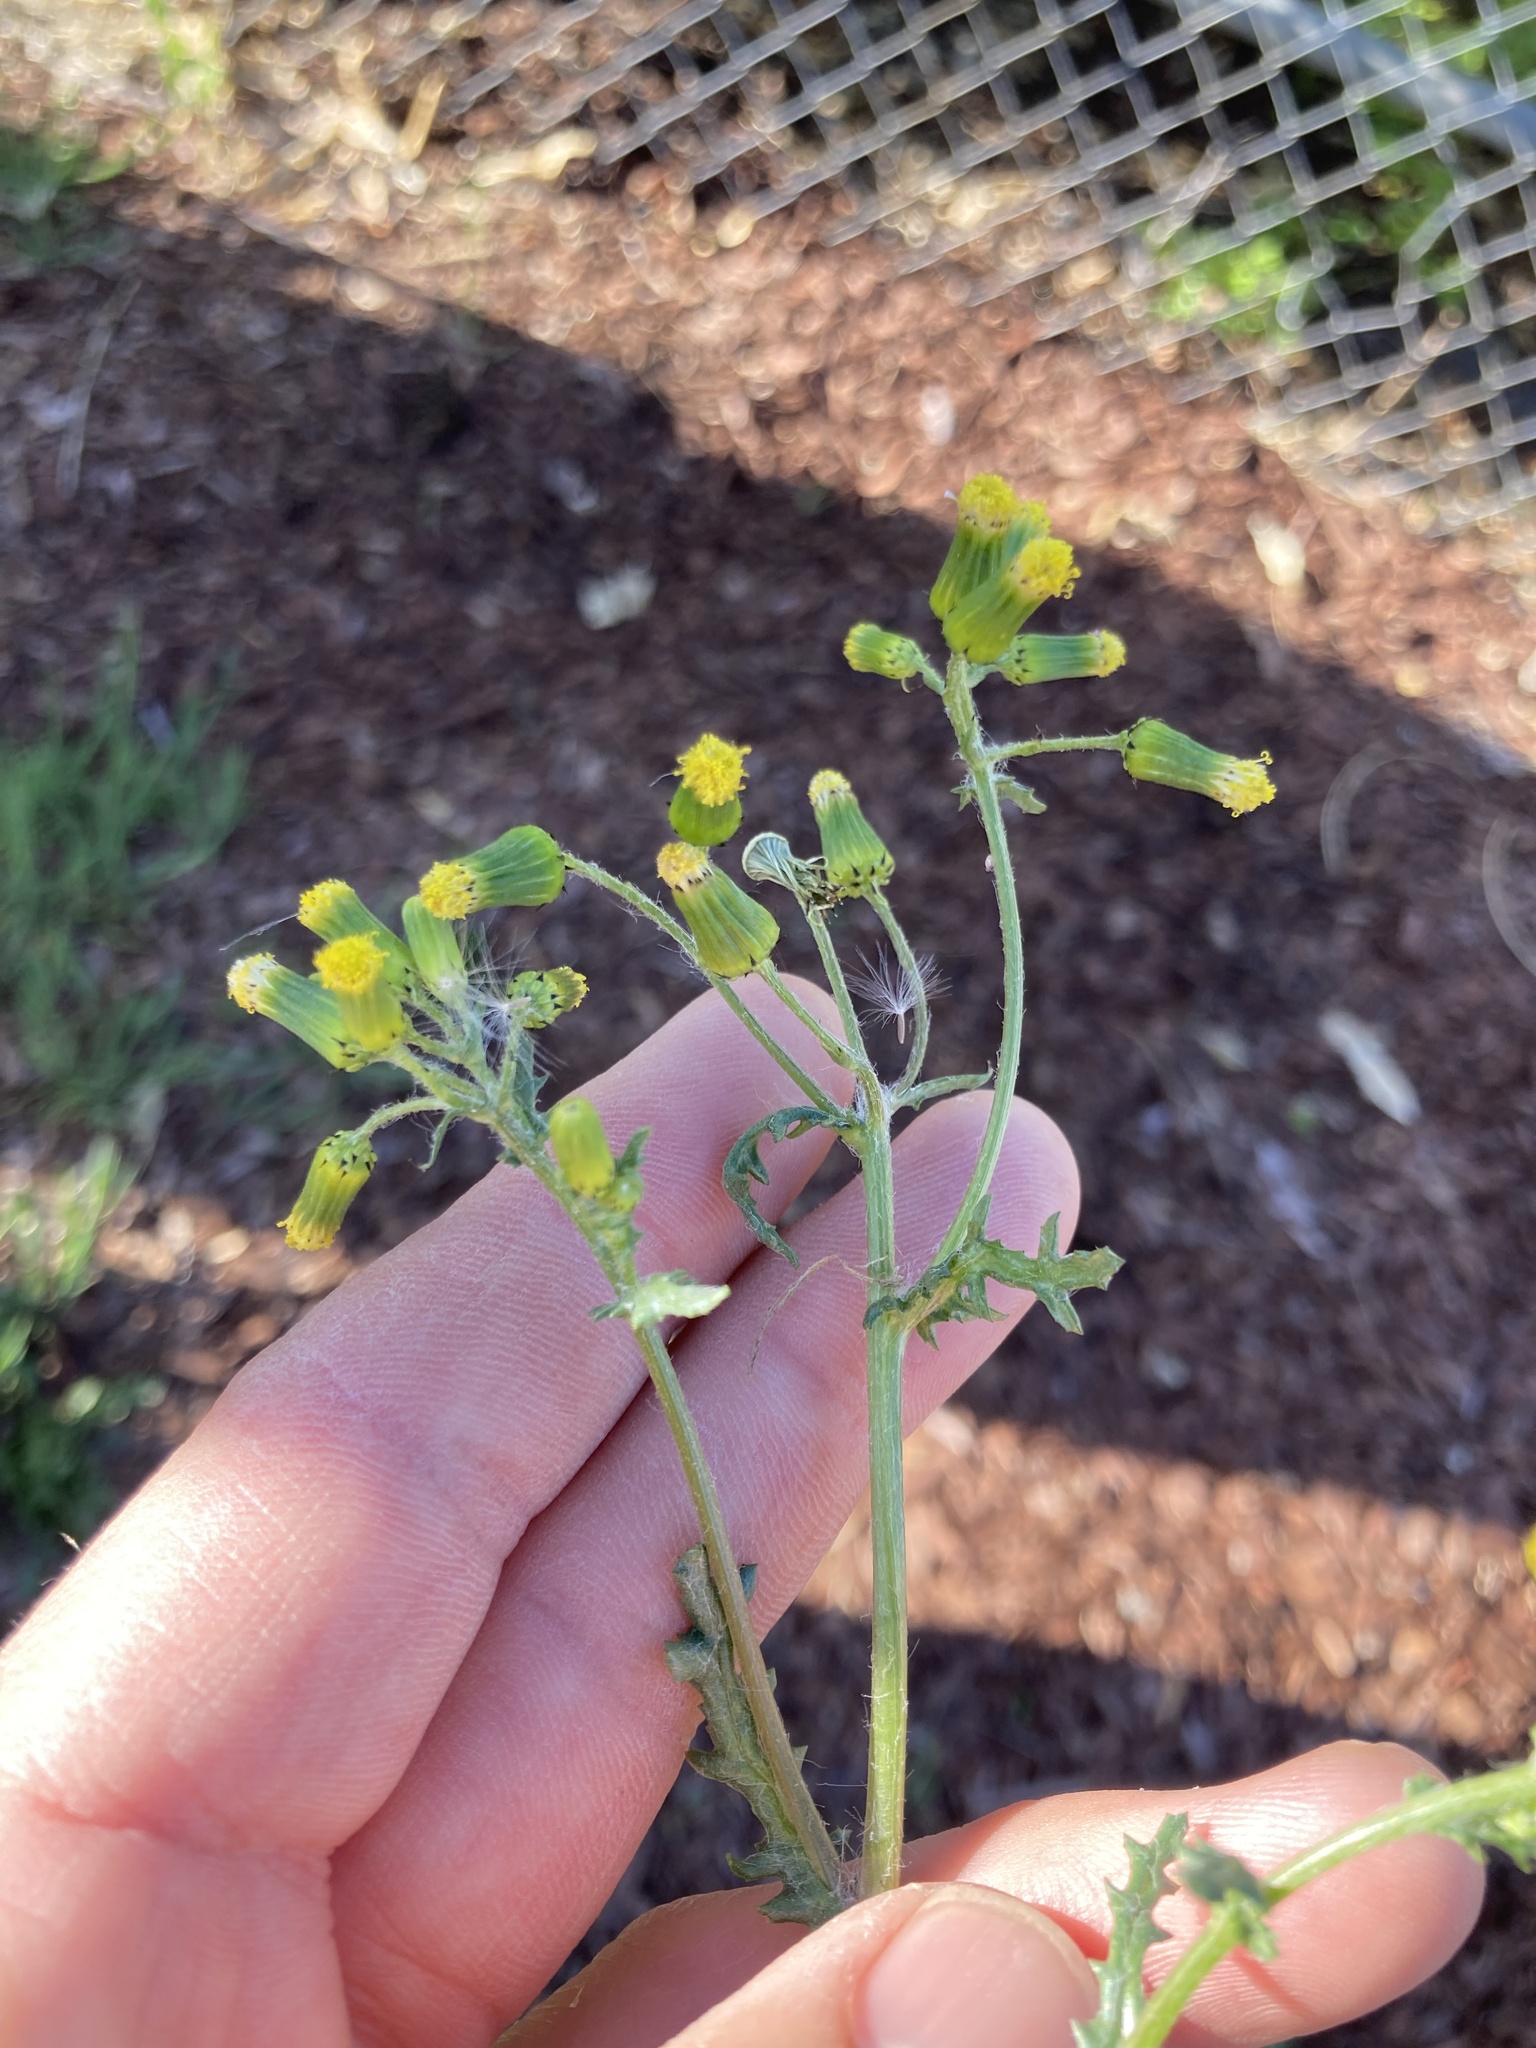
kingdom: Plantae
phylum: Tracheophyta
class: Magnoliopsida
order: Asterales
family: Asteraceae
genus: Senecio
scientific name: Senecio vulgaris
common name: Old-man-in-the-spring
